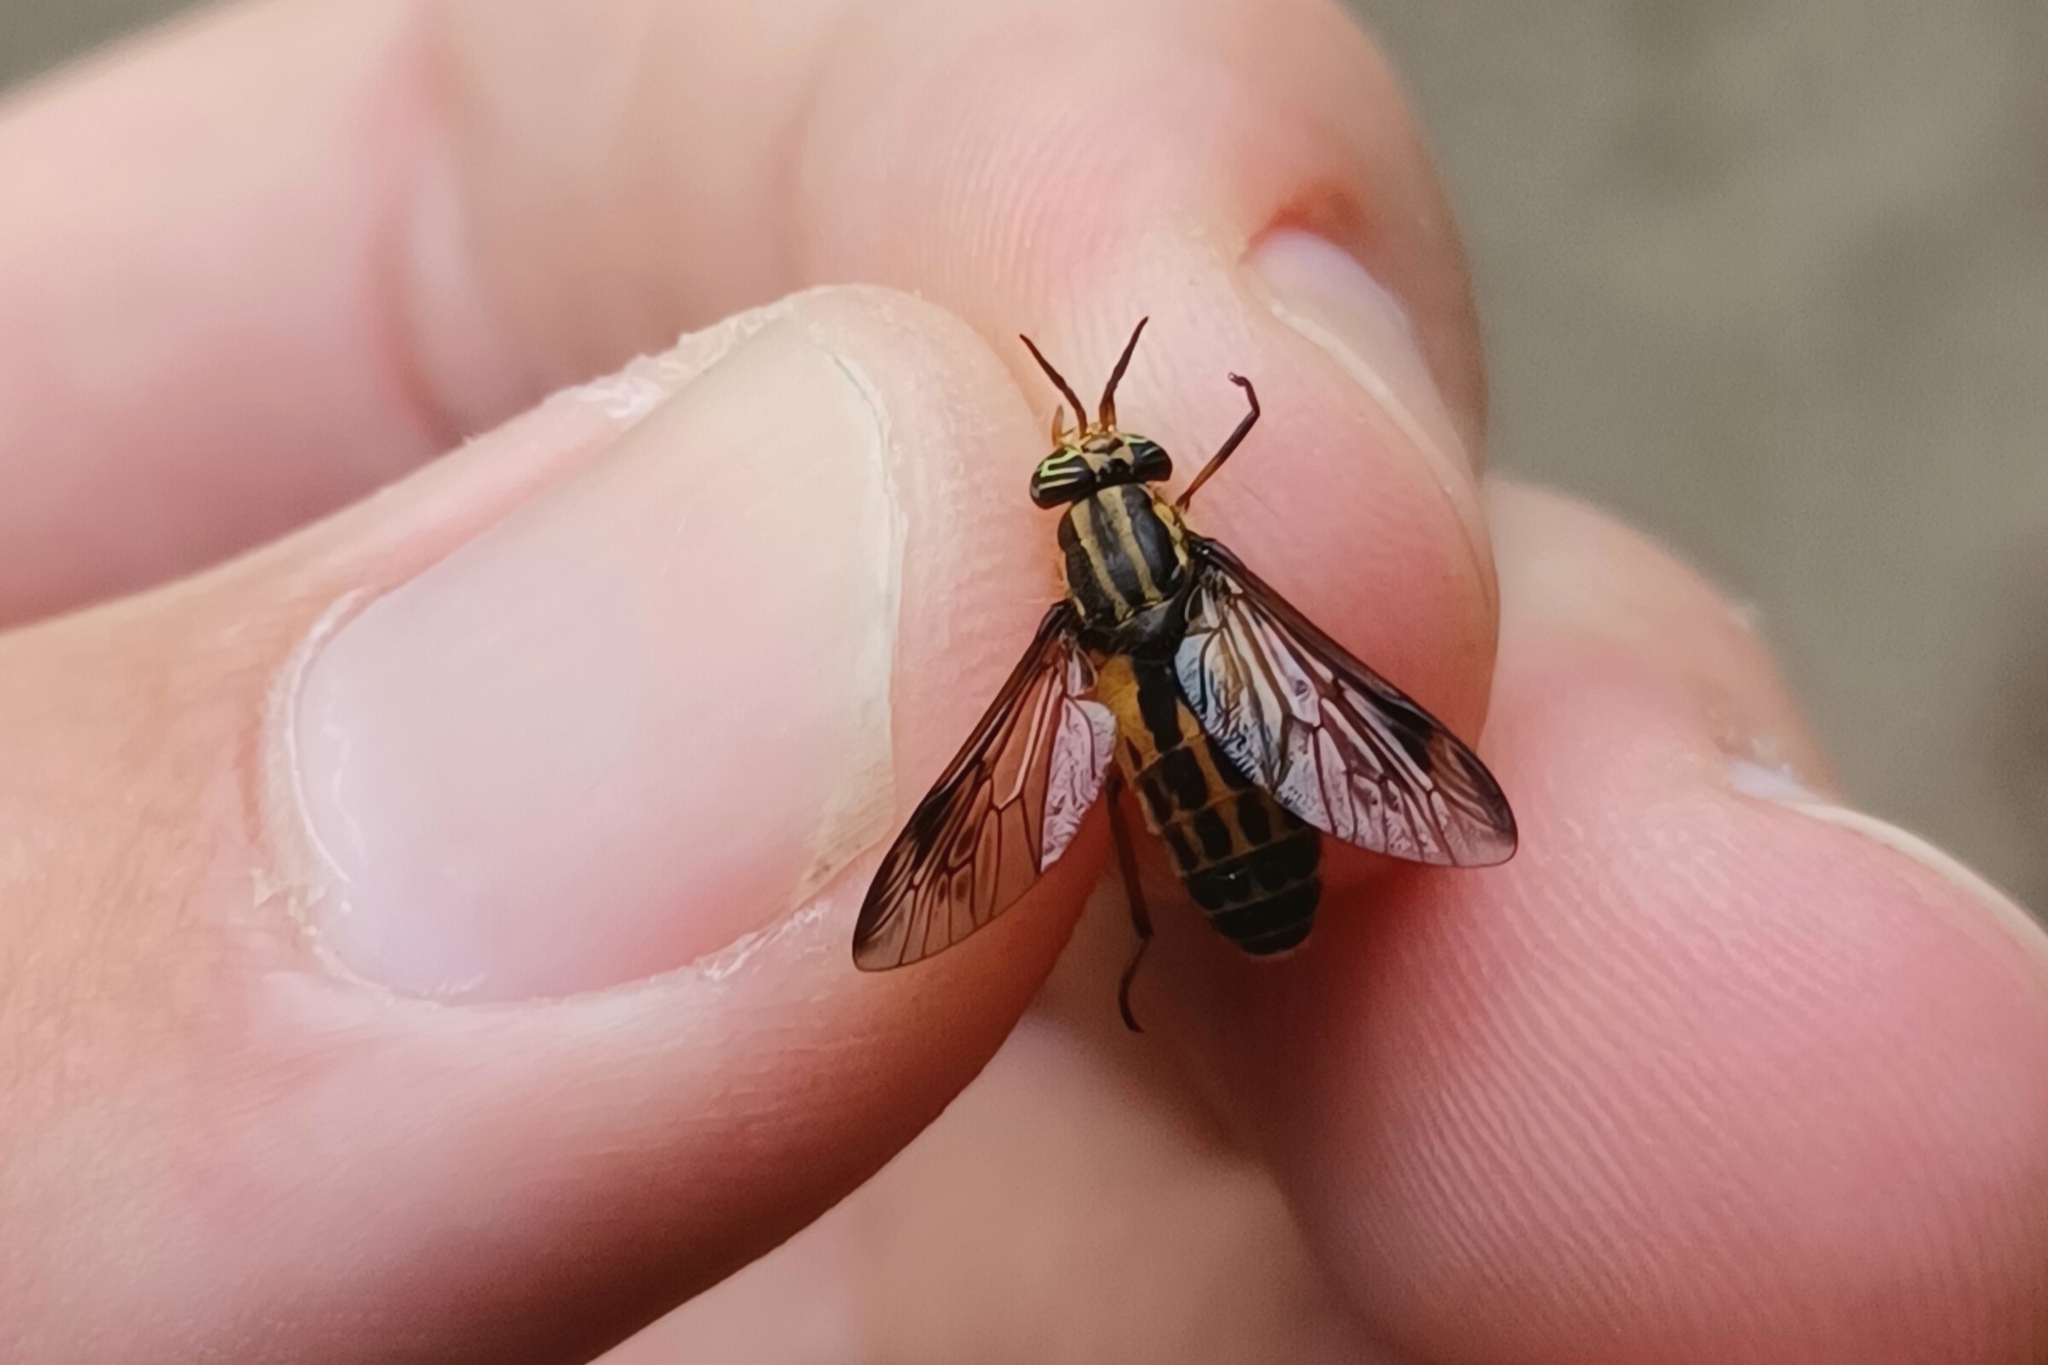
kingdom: Animalia
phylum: Arthropoda
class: Insecta
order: Diptera
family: Tabanidae
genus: Chrysops
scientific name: Chrysops shermani
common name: Sherman's deer fly
